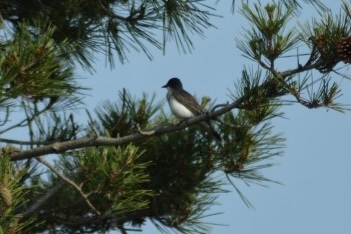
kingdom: Animalia
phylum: Chordata
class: Aves
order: Passeriformes
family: Tyrannidae
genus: Tyrannus
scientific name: Tyrannus tyrannus
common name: Eastern kingbird
